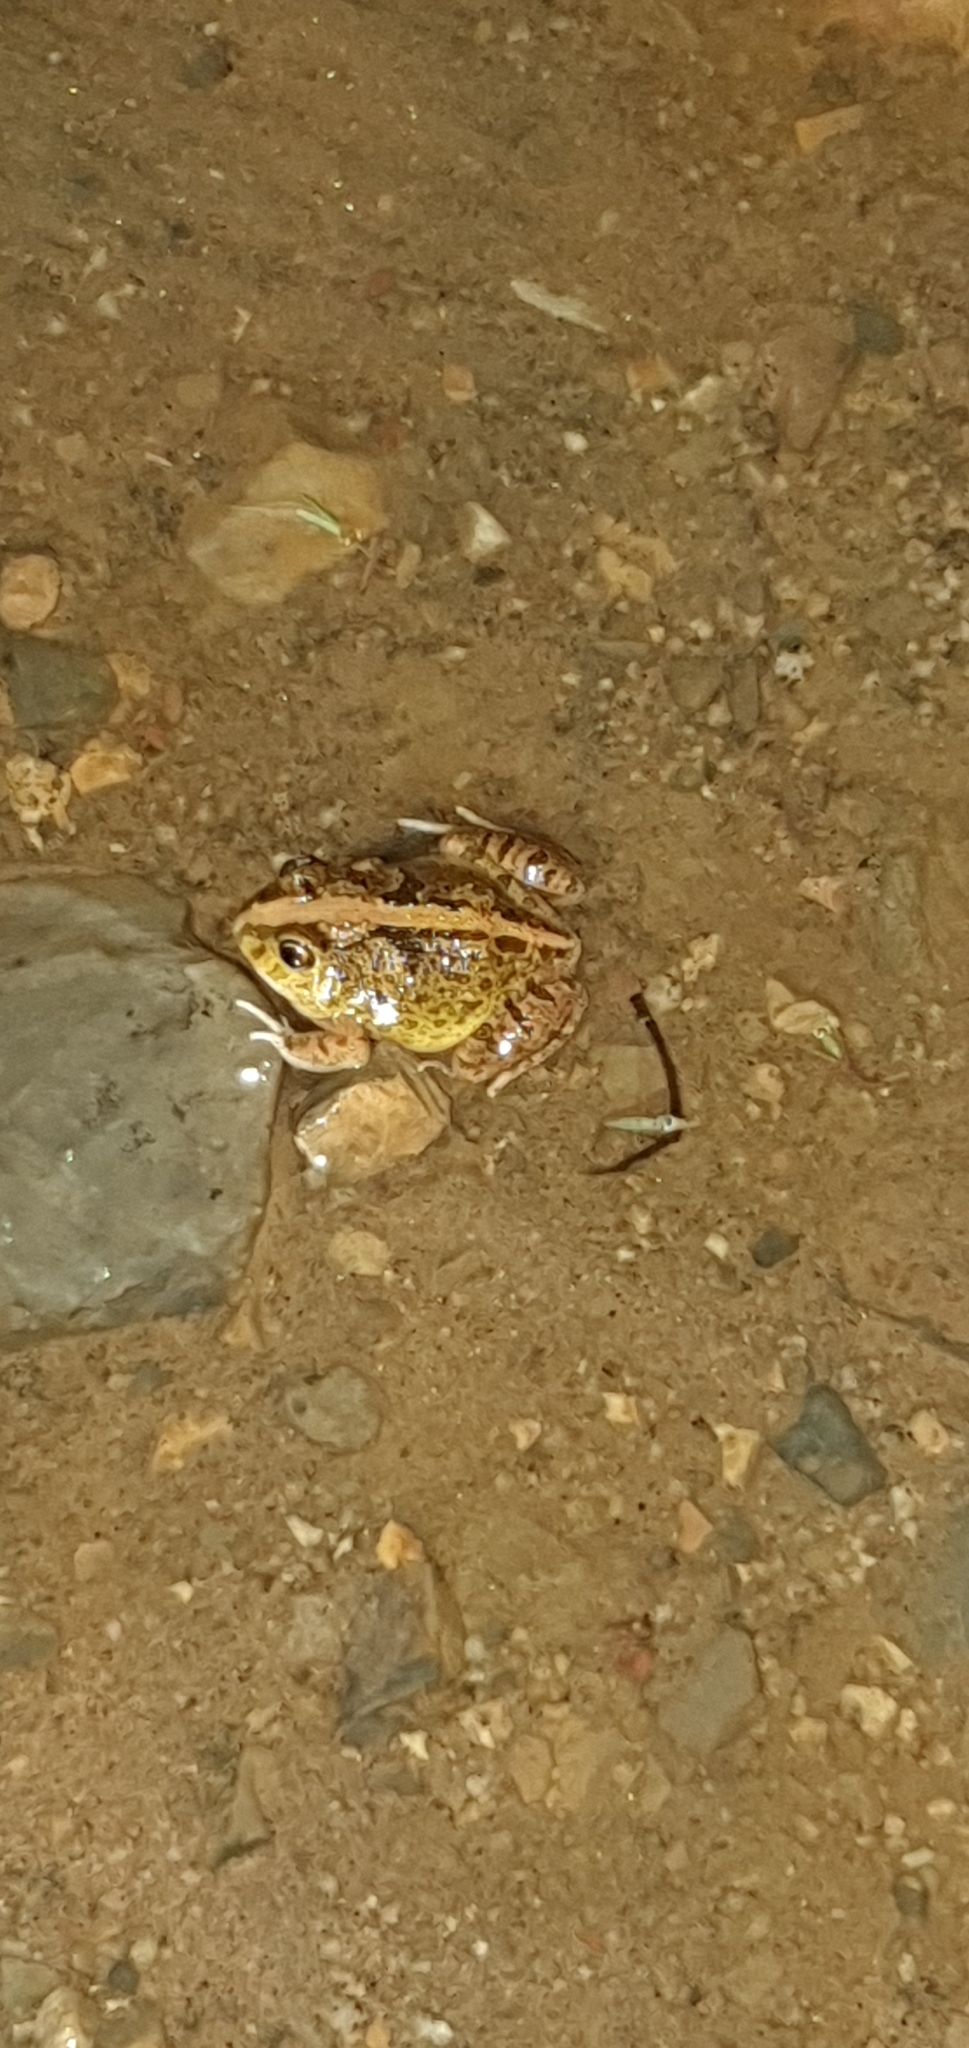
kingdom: Animalia
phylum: Chordata
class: Amphibia
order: Anura
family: Limnodynastidae
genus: Platyplectrum
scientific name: Platyplectrum ornatum
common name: Ornate burrowing frog
